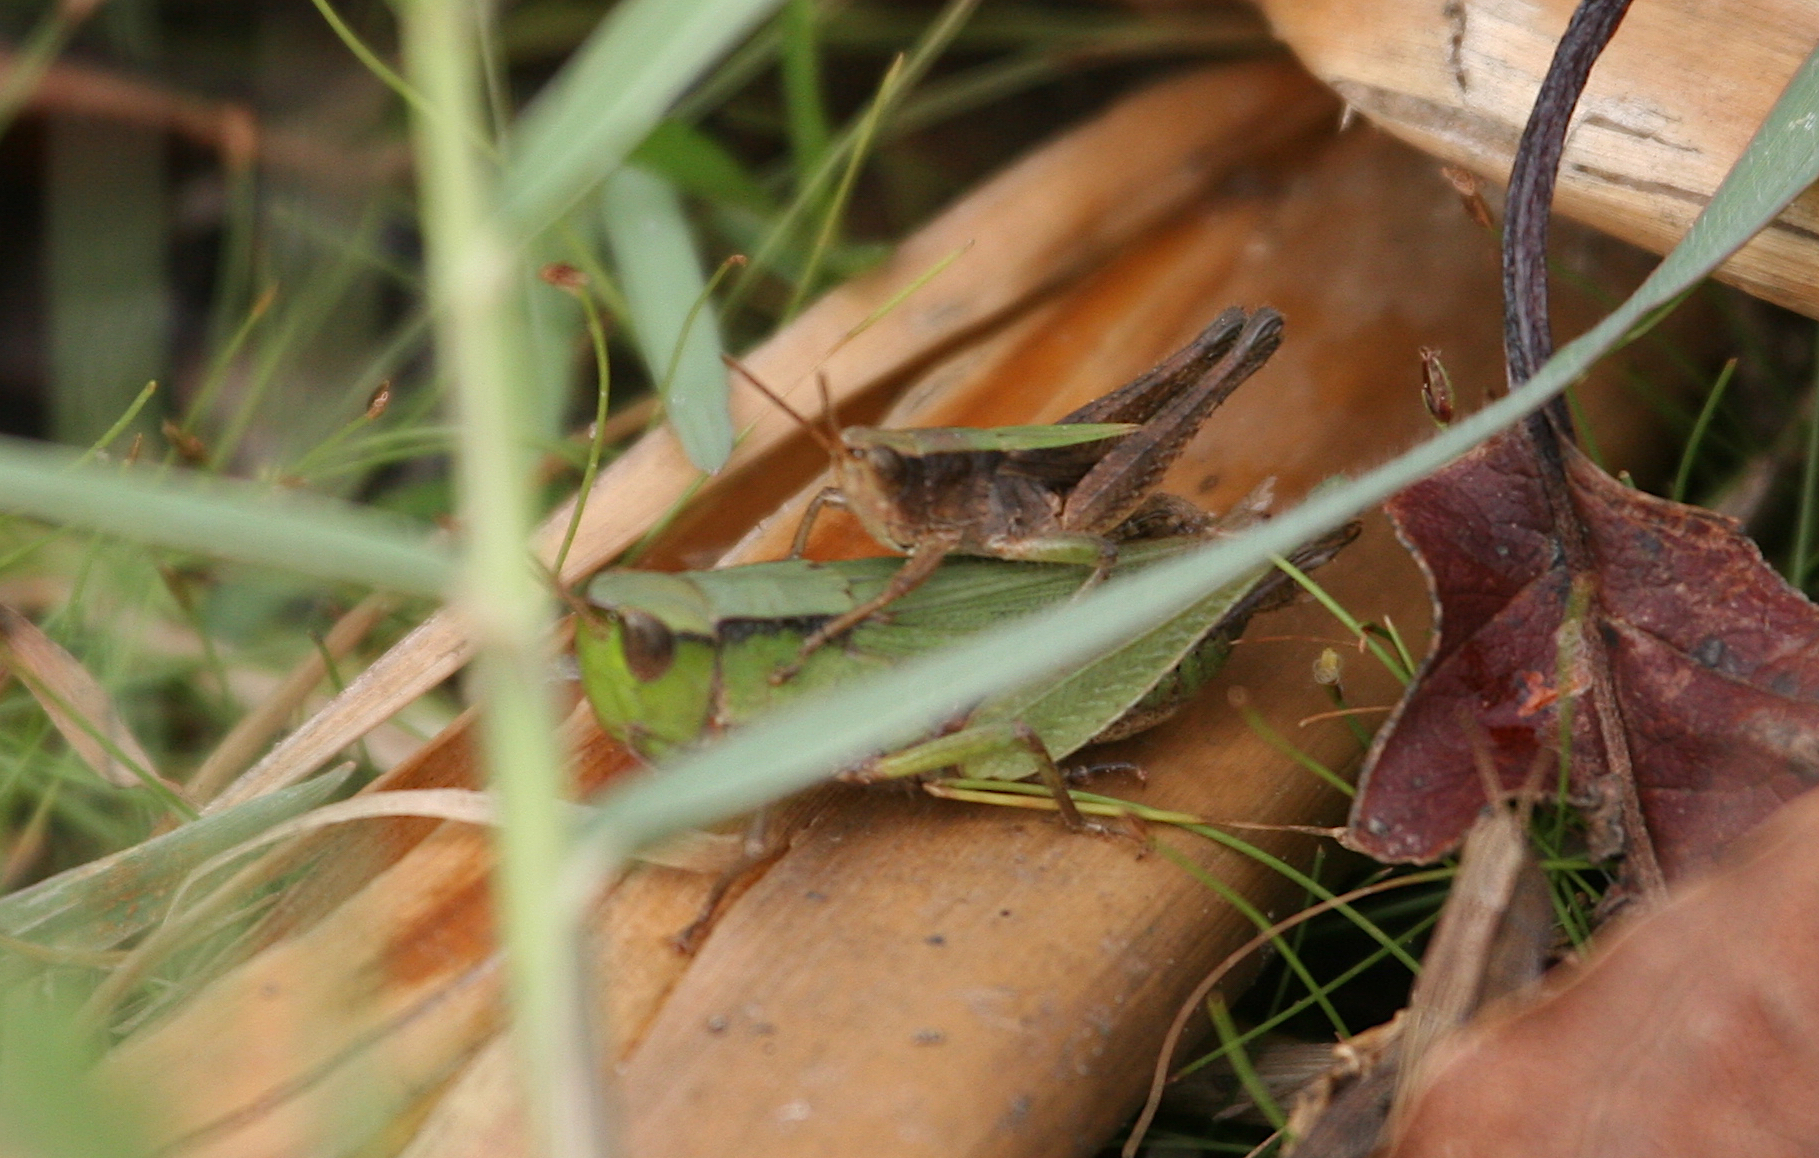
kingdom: Animalia
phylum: Arthropoda
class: Insecta
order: Orthoptera
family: Acrididae
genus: Dichromorpha
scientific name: Dichromorpha viridis
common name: Short-winged green grasshopper
